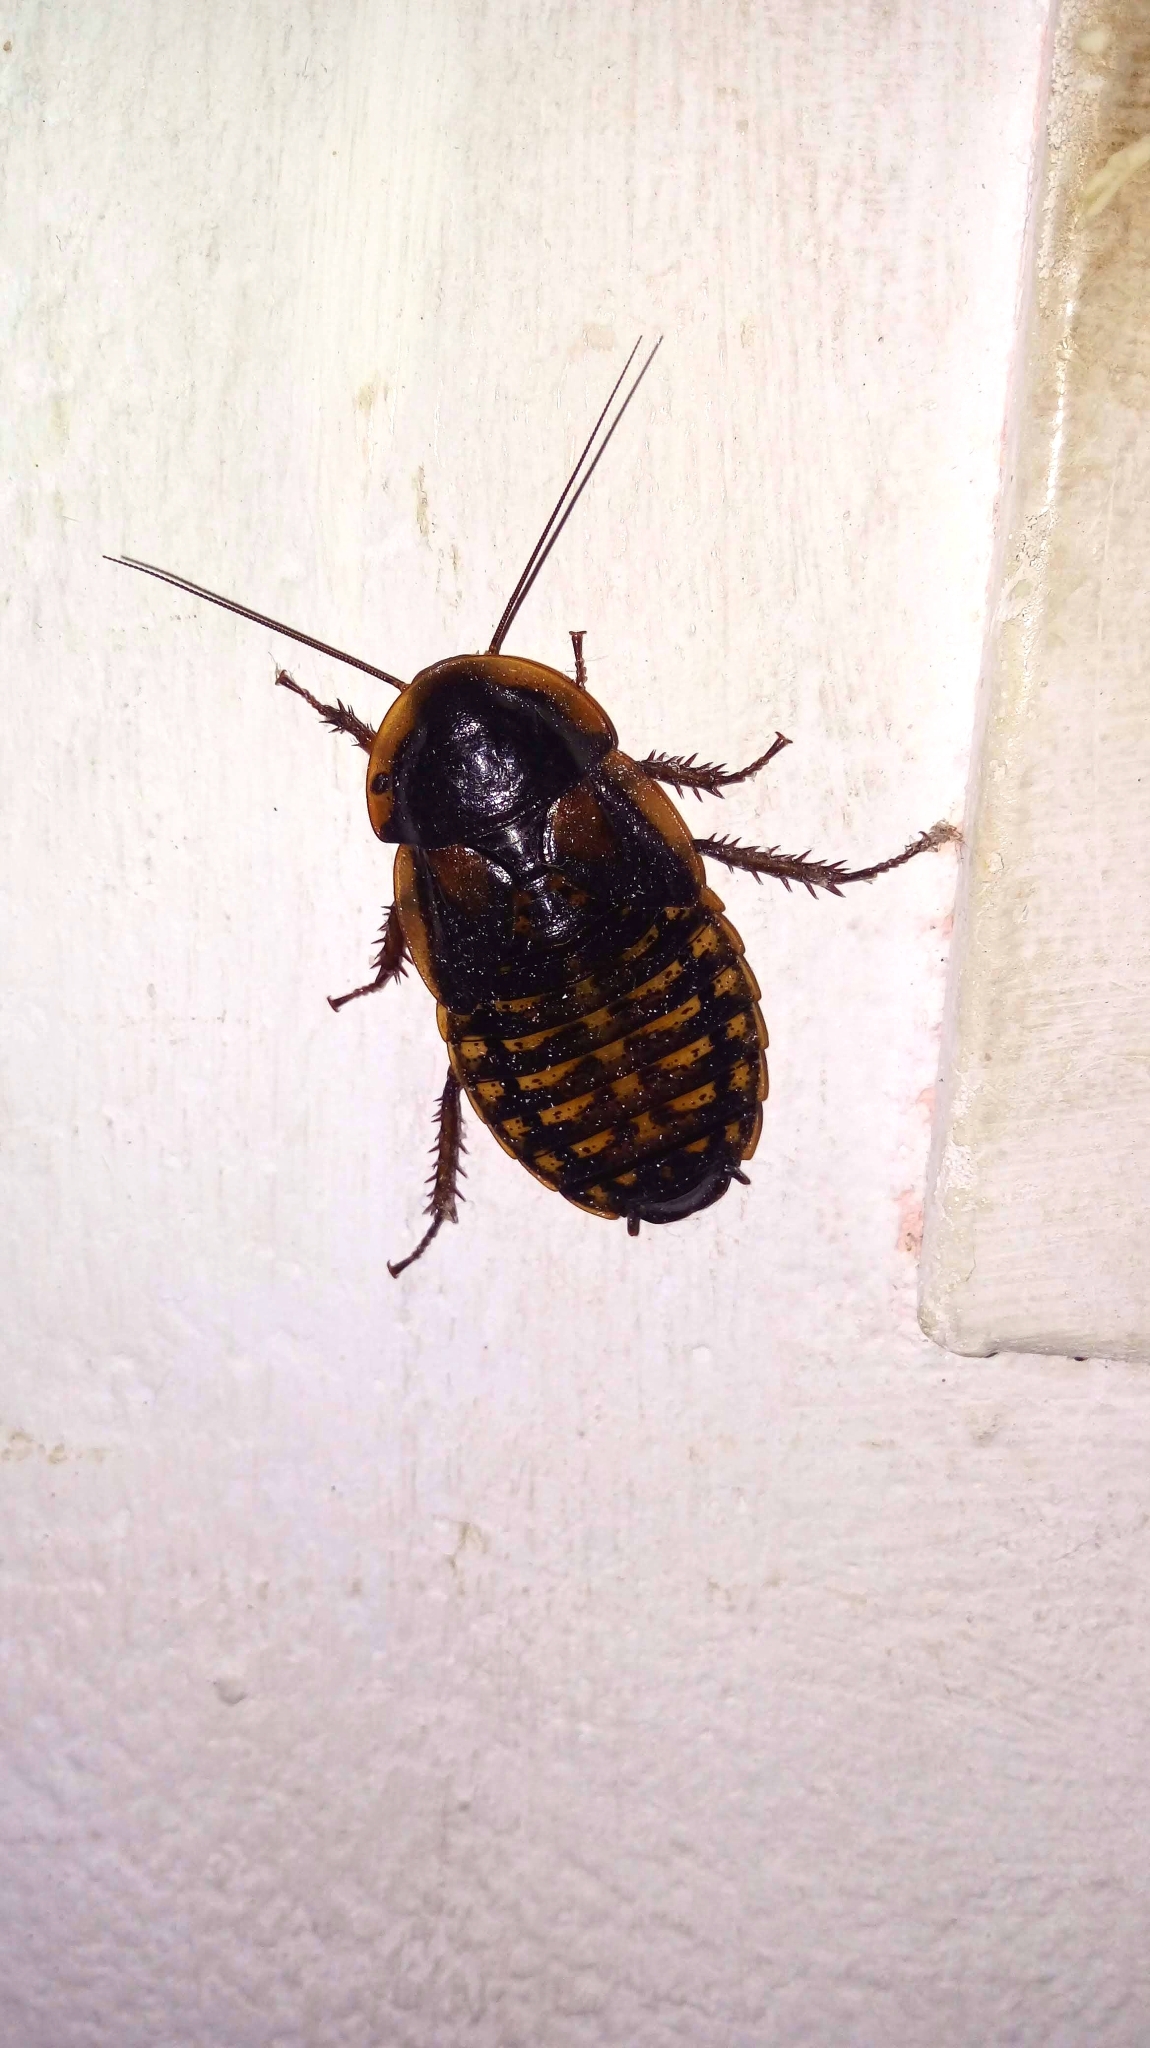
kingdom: Animalia
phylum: Arthropoda
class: Insecta
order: Blattodea
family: Blaberidae
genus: Blaptica
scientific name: Blaptica dubia
